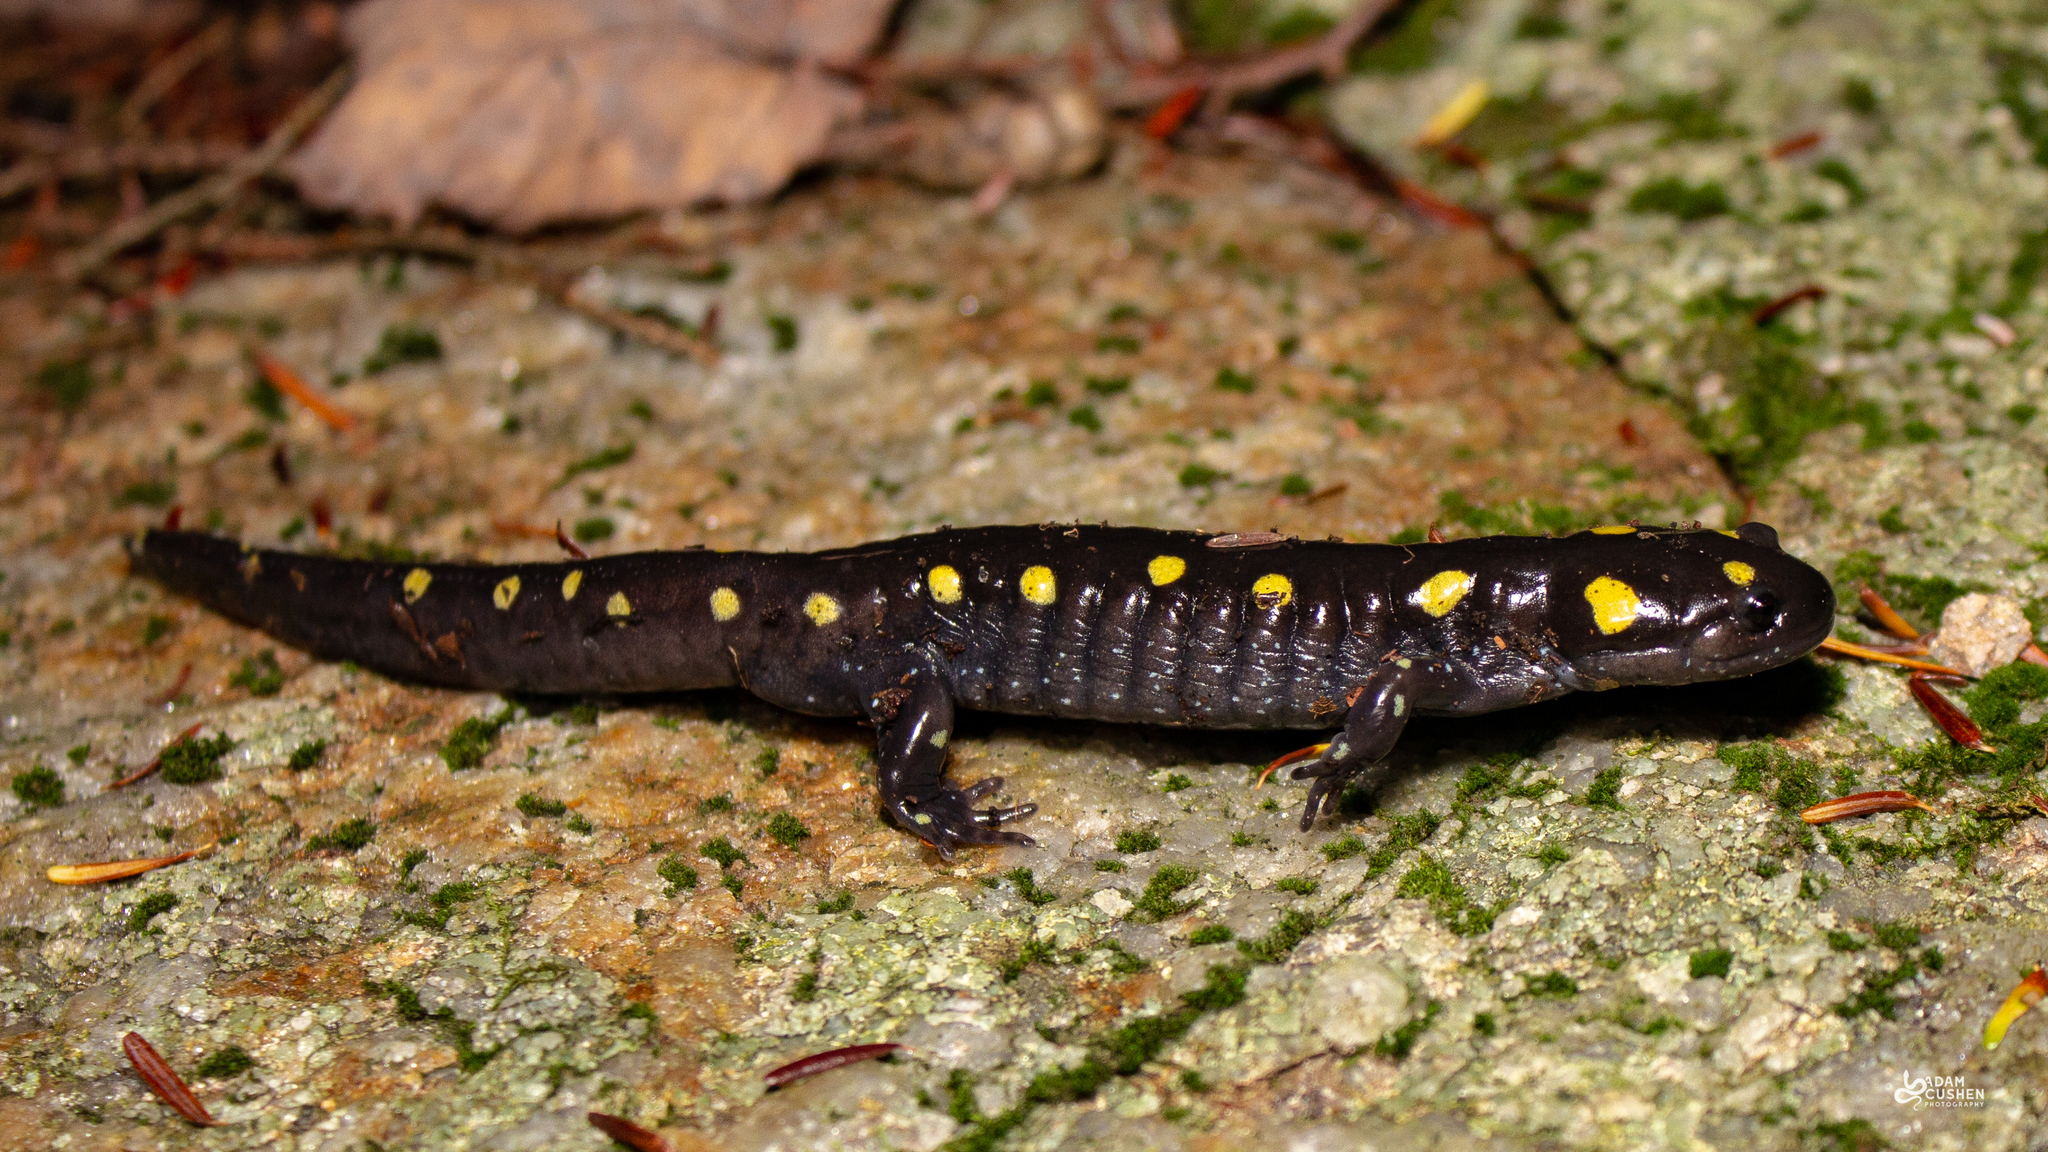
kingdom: Animalia
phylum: Chordata
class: Amphibia
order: Caudata
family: Ambystomatidae
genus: Ambystoma
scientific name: Ambystoma maculatum
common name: Spotted salamander
